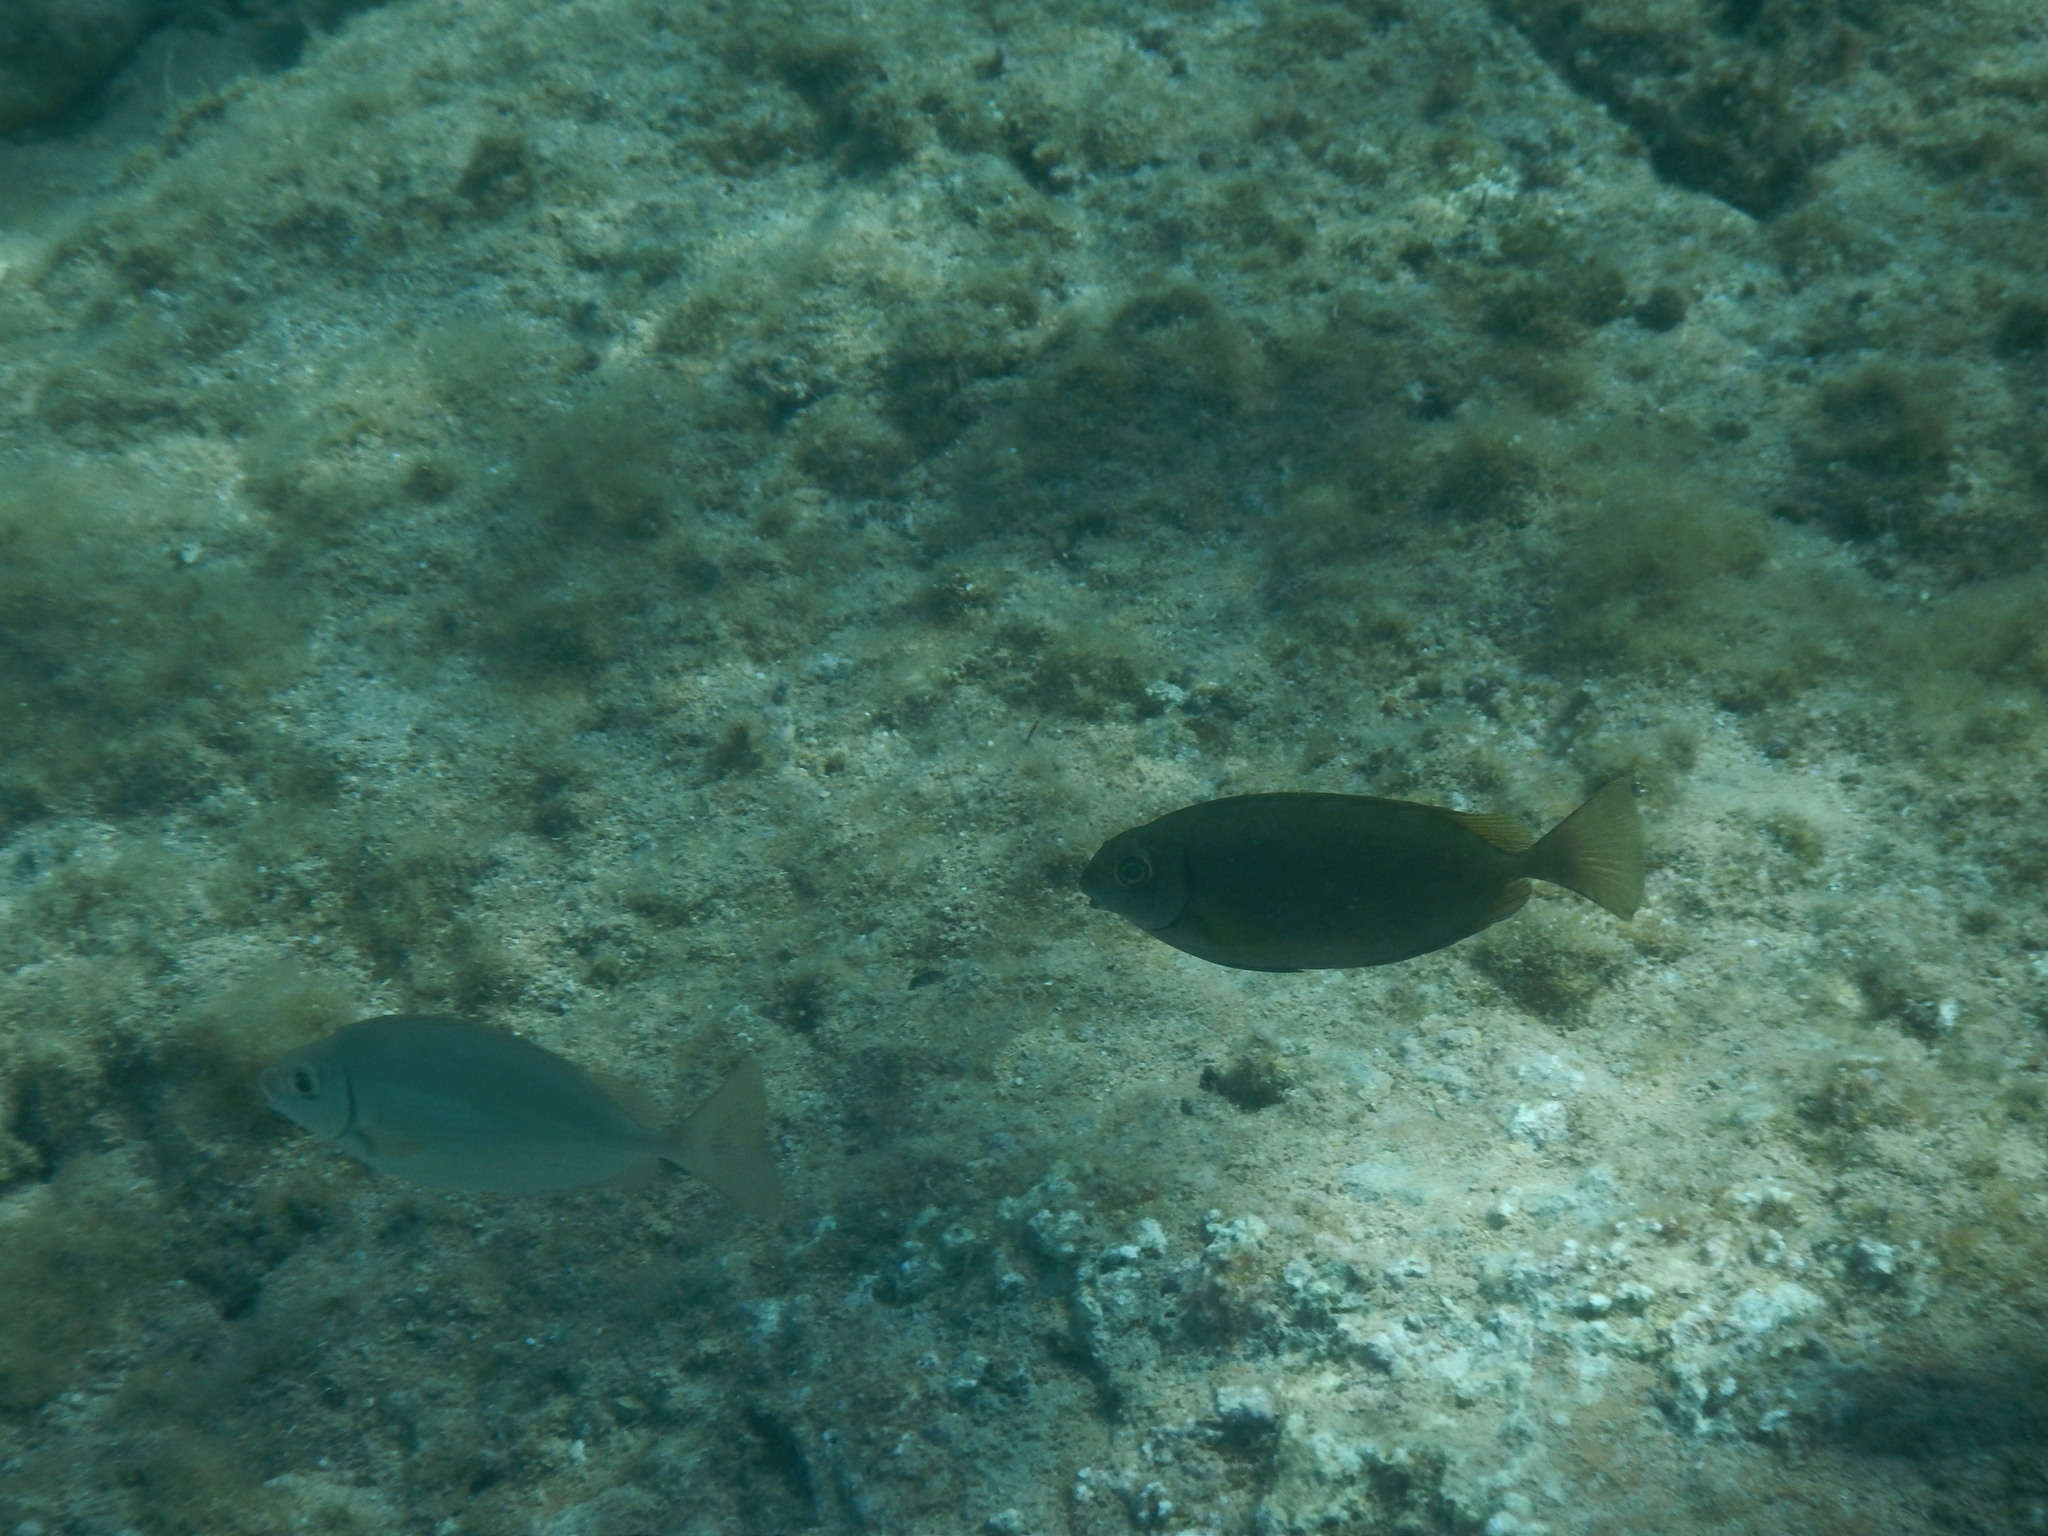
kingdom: Animalia
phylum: Chordata
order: Perciformes
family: Siganidae
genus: Siganus
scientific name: Siganus luridus
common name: Dusky spinefoot
